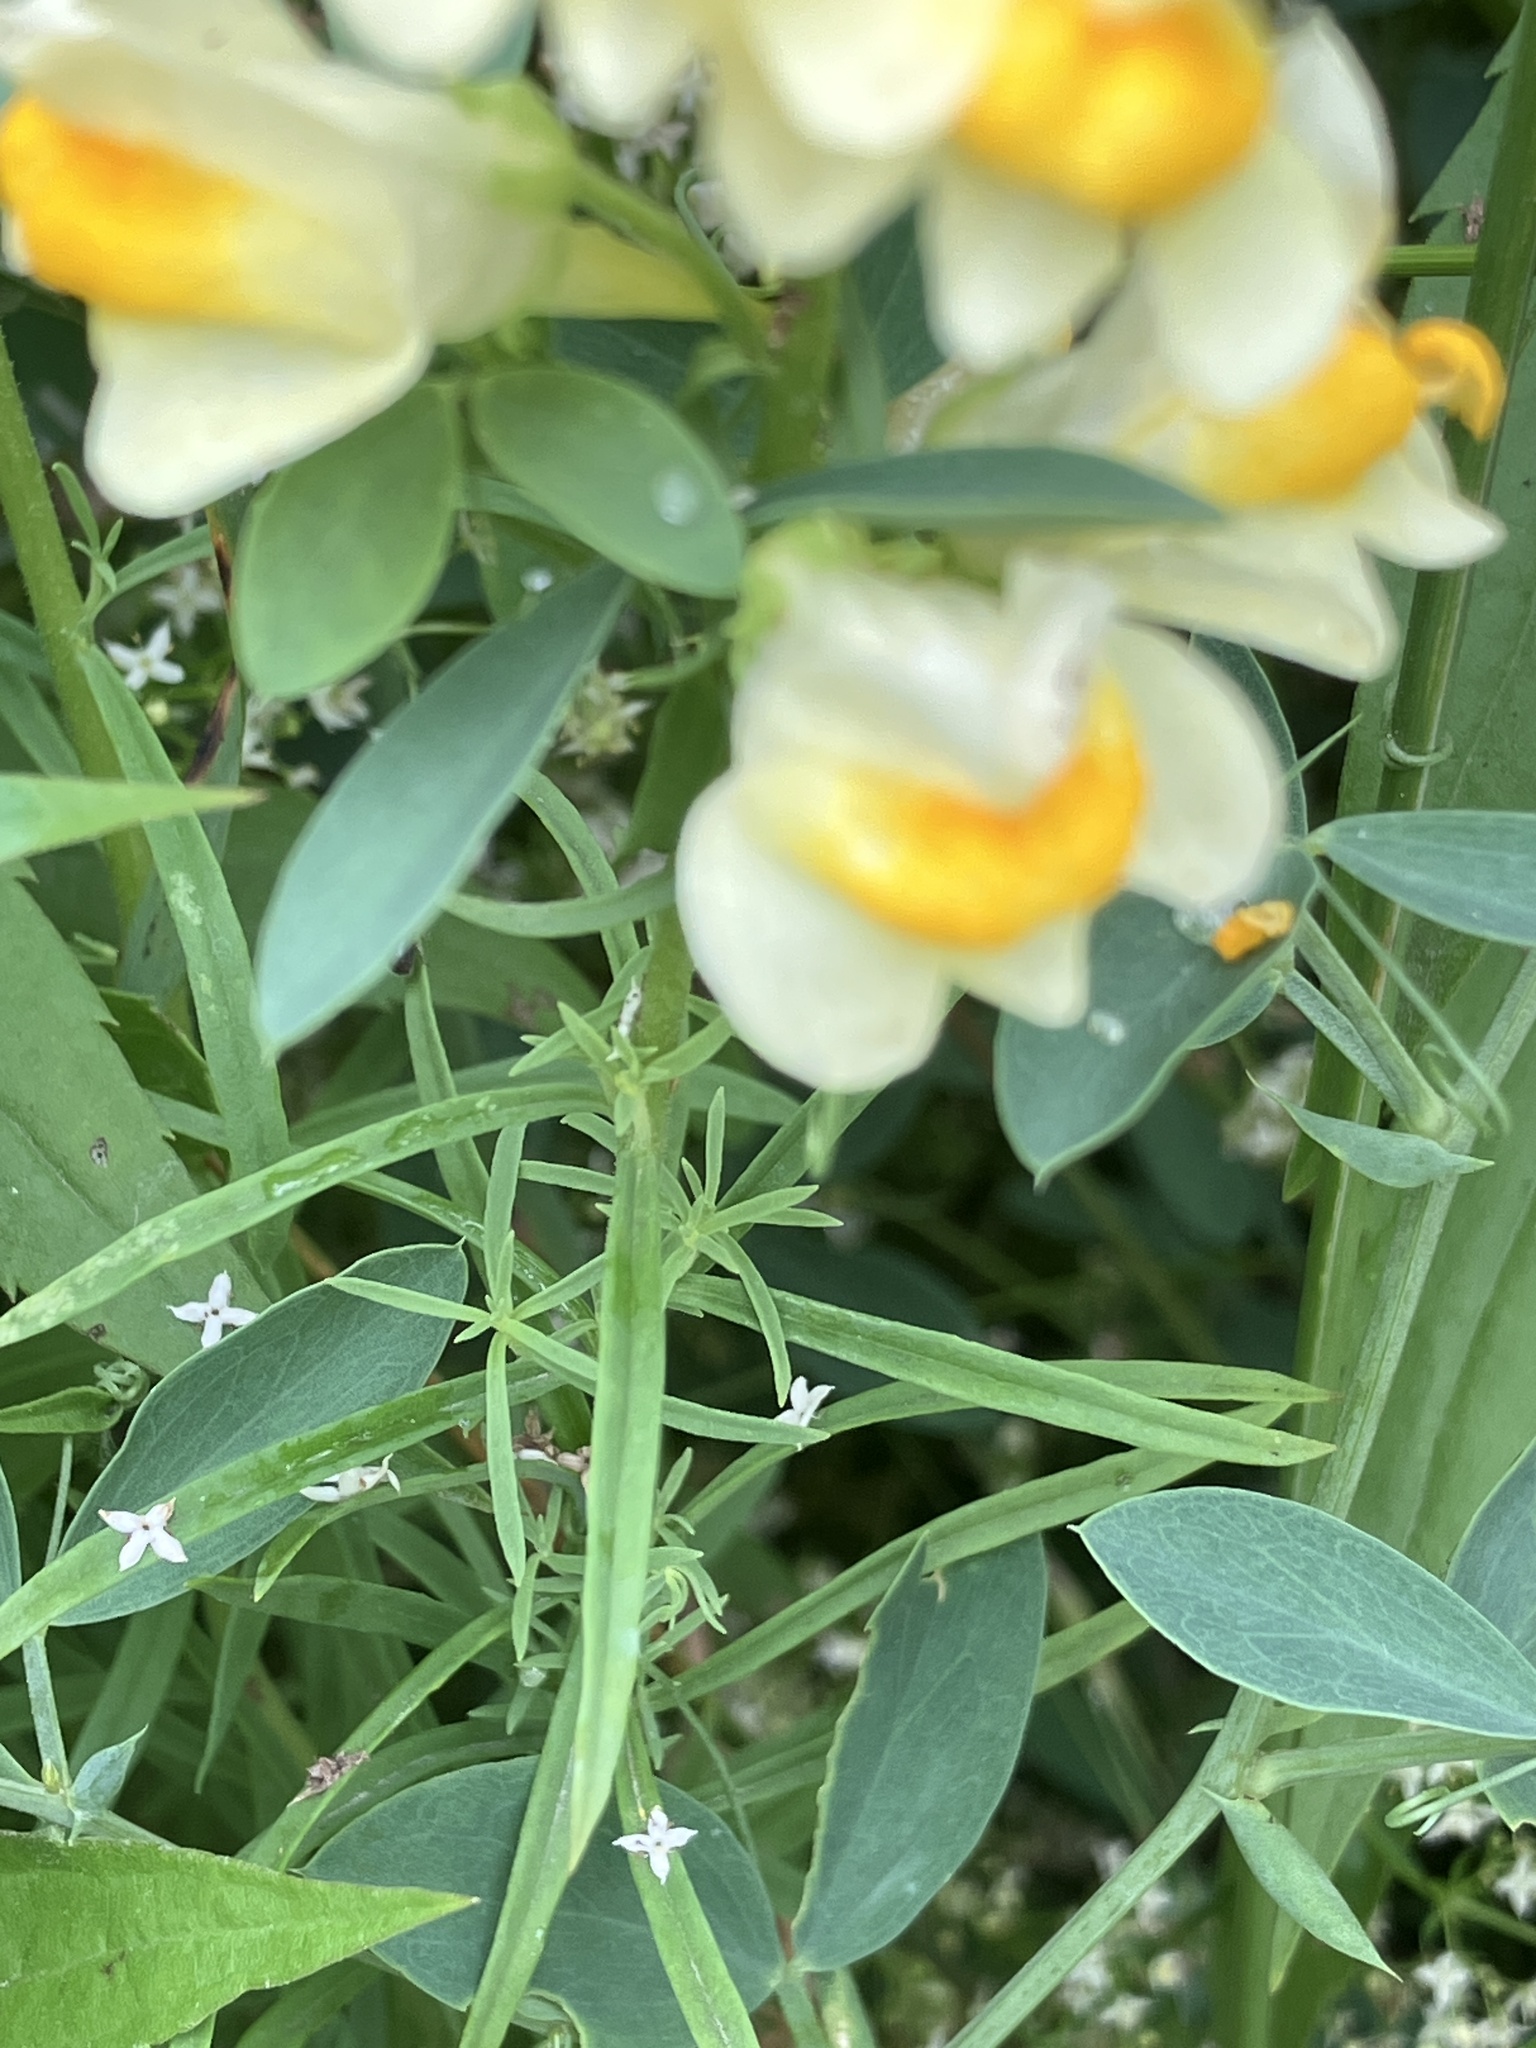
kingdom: Plantae
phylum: Tracheophyta
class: Magnoliopsida
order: Lamiales
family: Plantaginaceae
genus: Linaria
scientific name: Linaria vulgaris
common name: Butter and eggs
